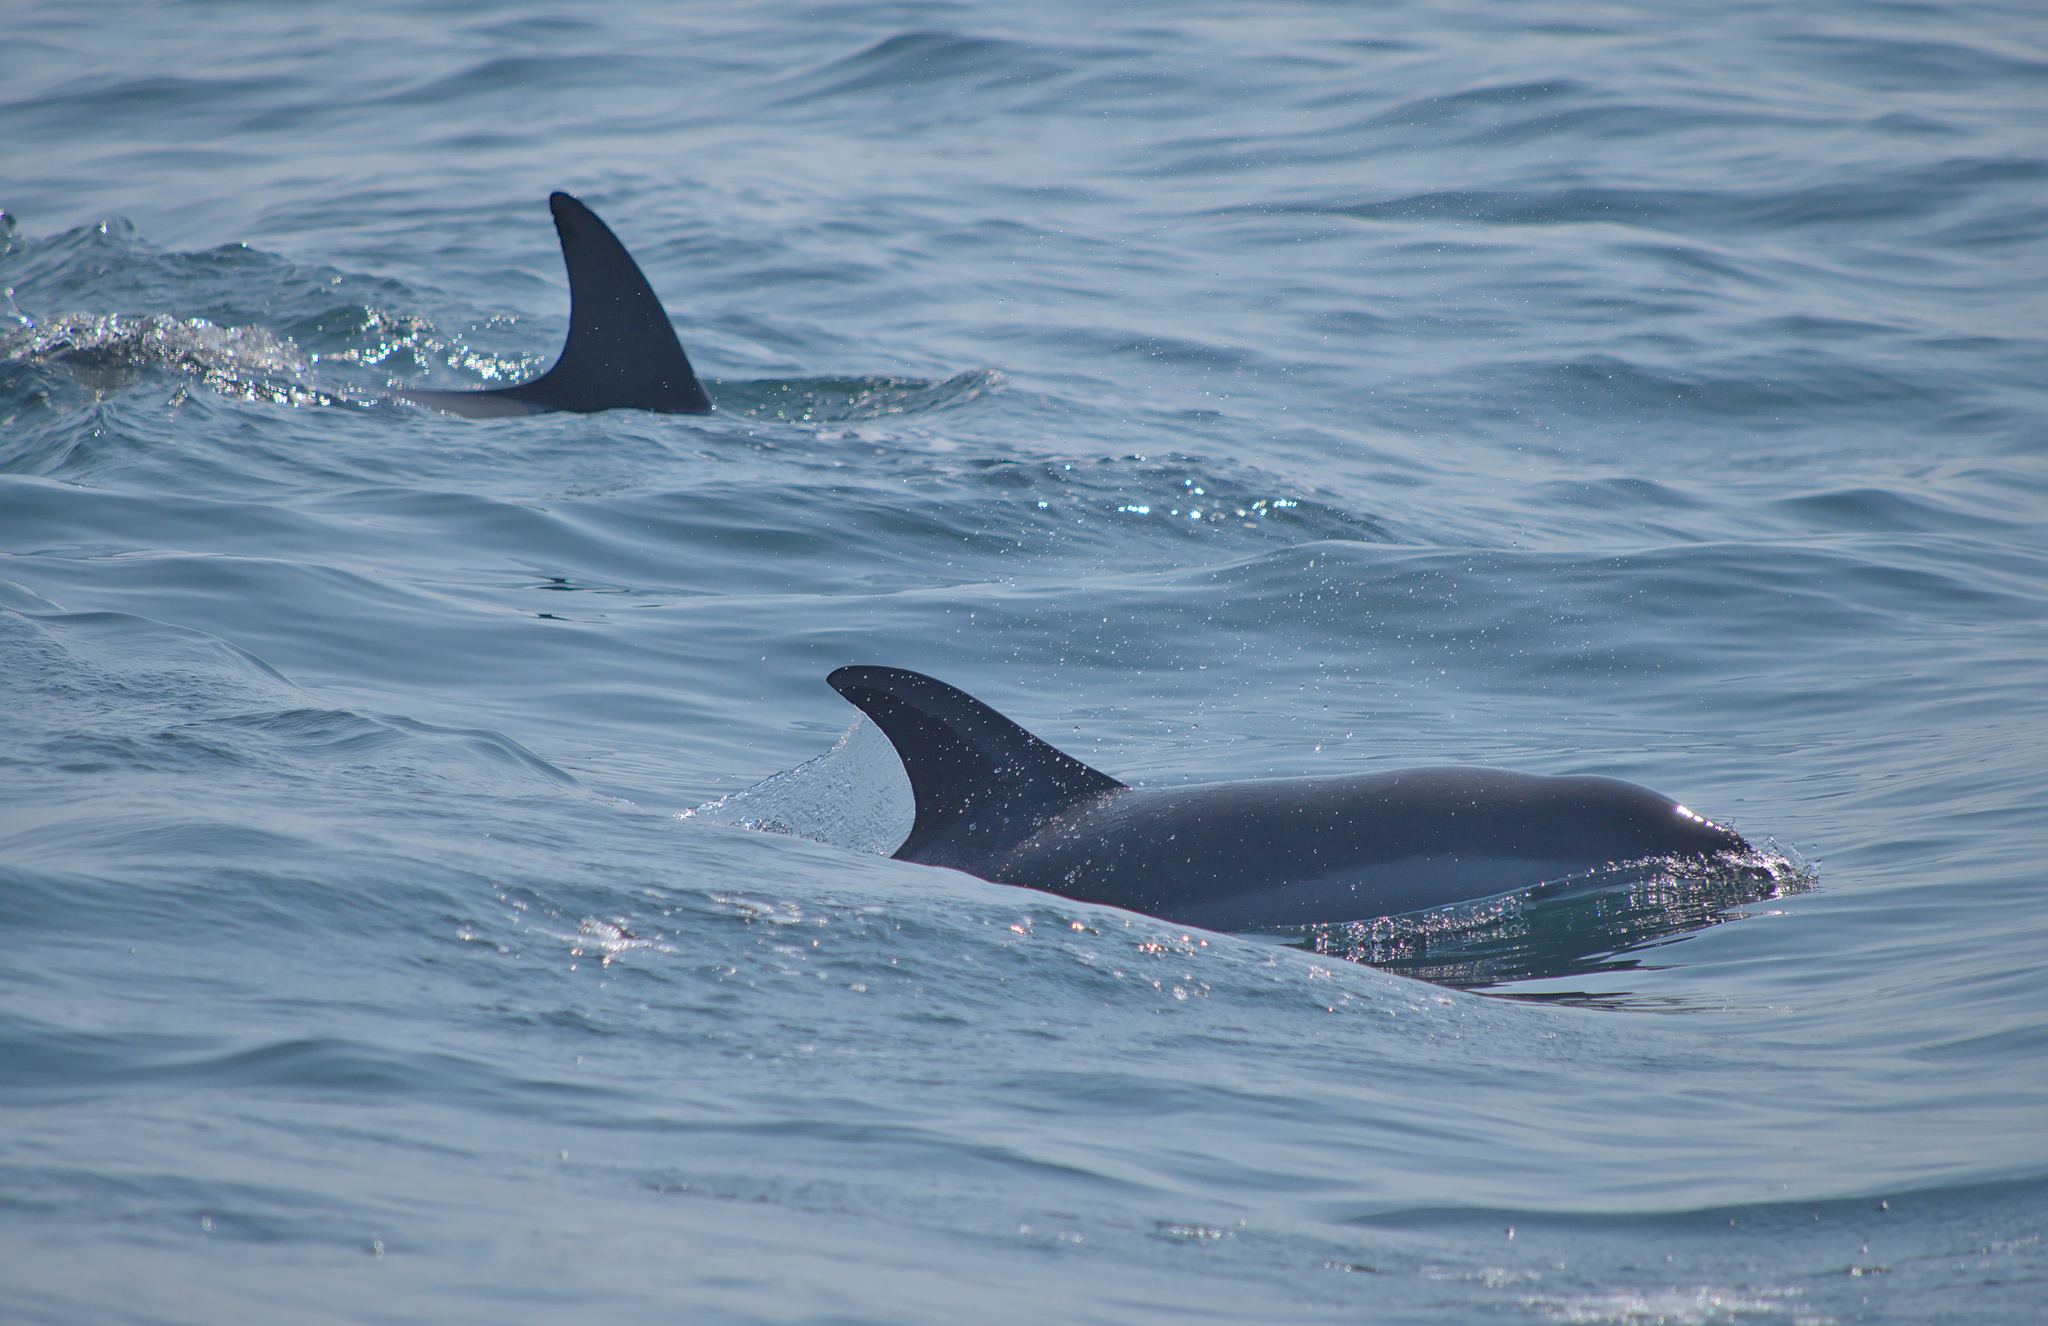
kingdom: Animalia
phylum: Chordata
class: Mammalia
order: Cetacea
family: Delphinidae
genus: Lagenorhynchus
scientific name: Lagenorhynchus acutus
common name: Atlantic white-sided dolphin
